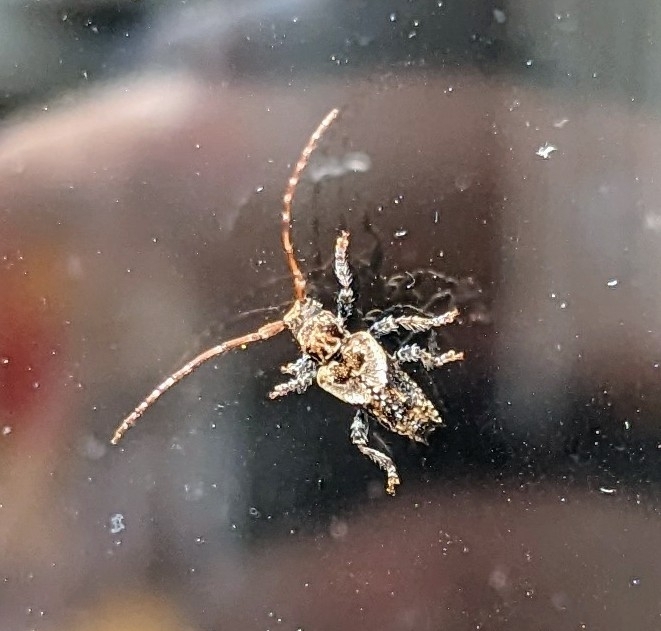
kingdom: Animalia
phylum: Arthropoda
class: Insecta
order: Coleoptera
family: Cerambycidae
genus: Pogonocherus
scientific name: Pogonocherus hispidus
